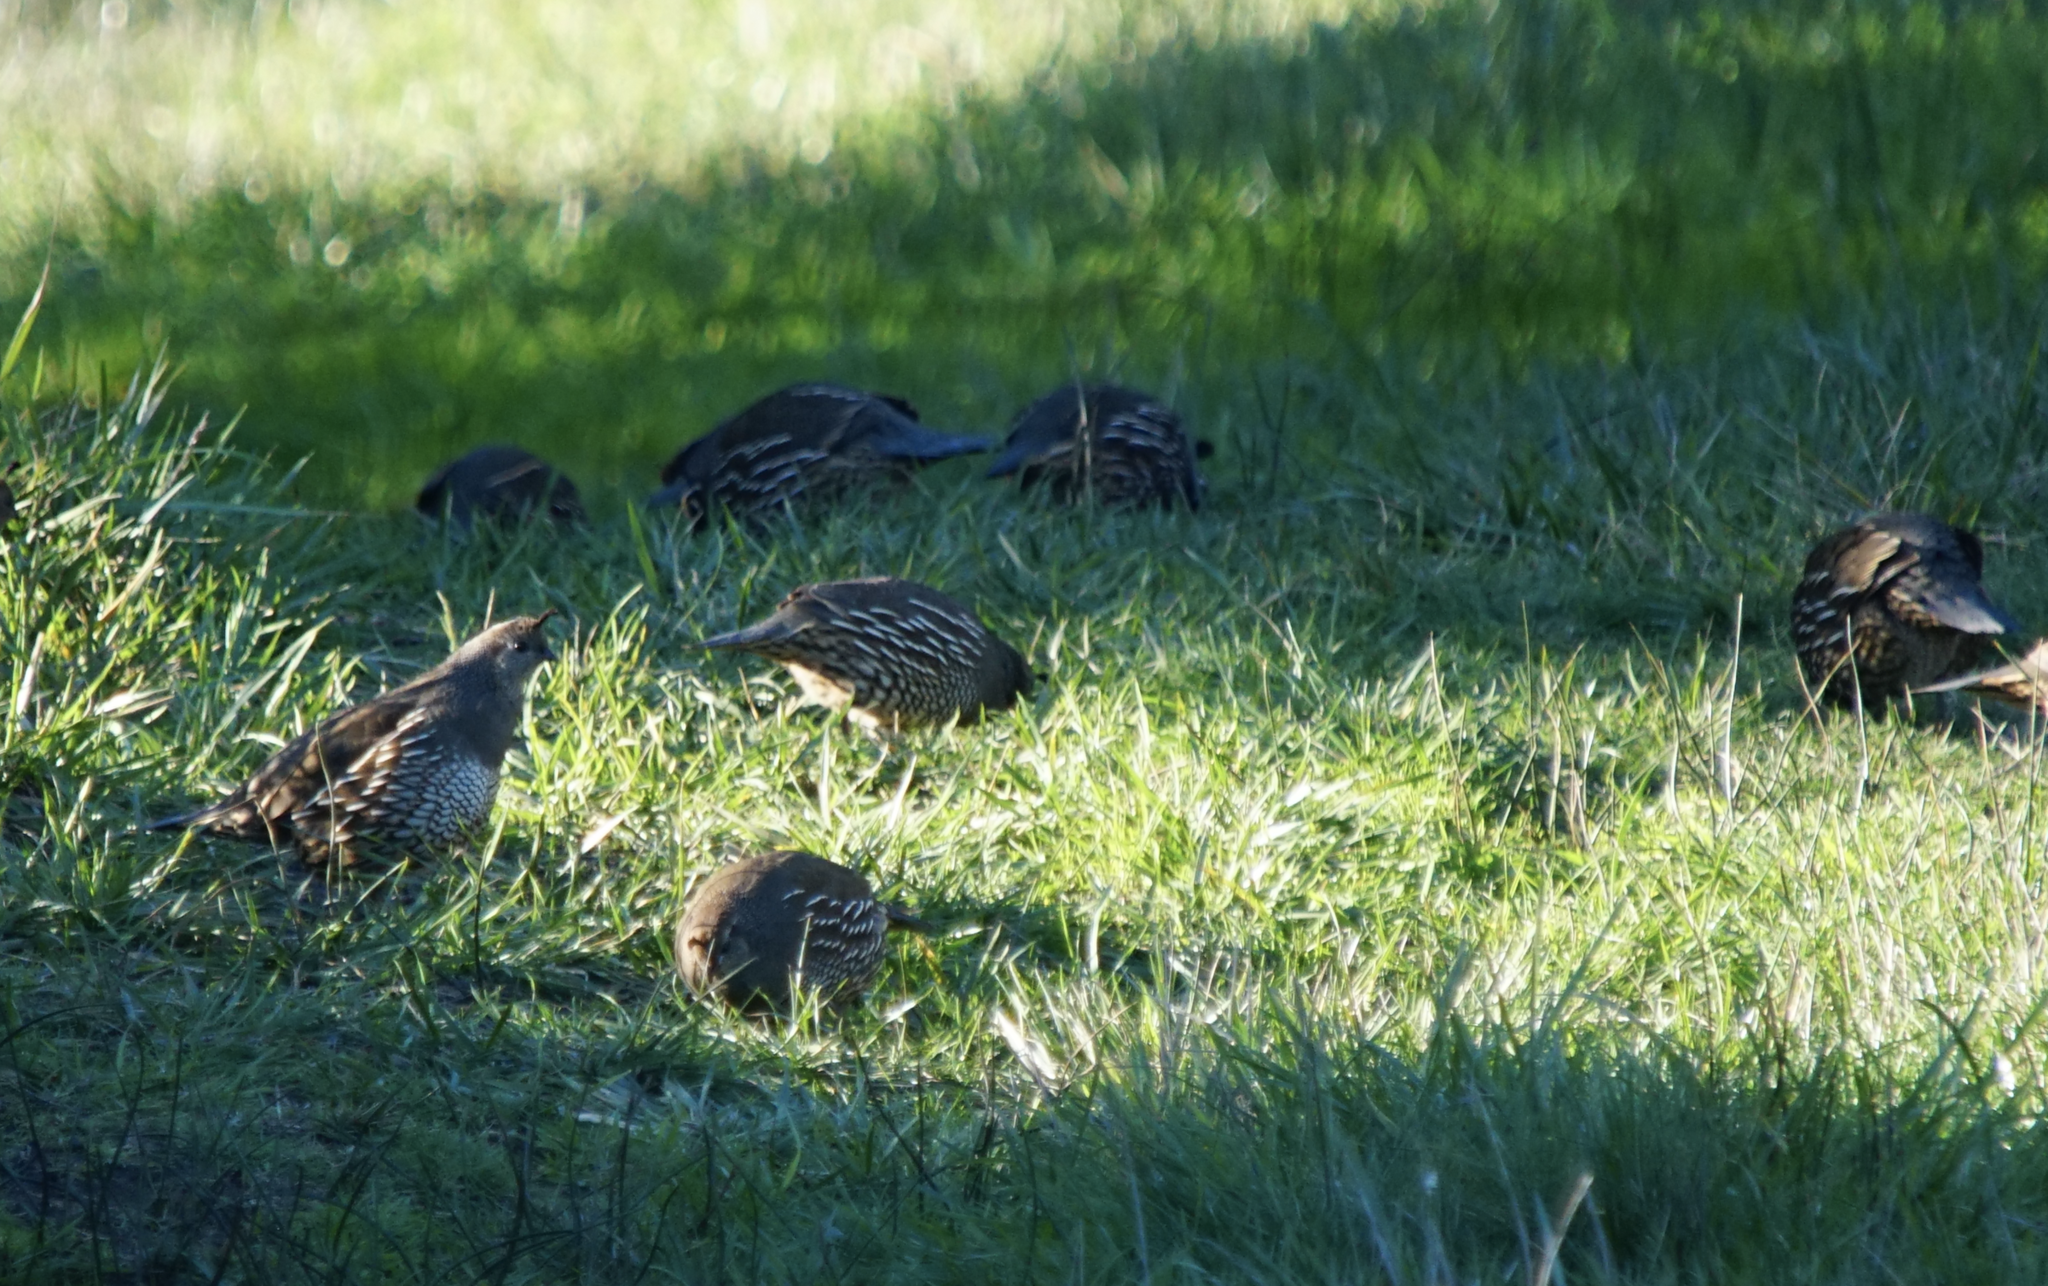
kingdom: Animalia
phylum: Chordata
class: Aves
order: Galliformes
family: Odontophoridae
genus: Callipepla
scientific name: Callipepla californica
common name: California quail
